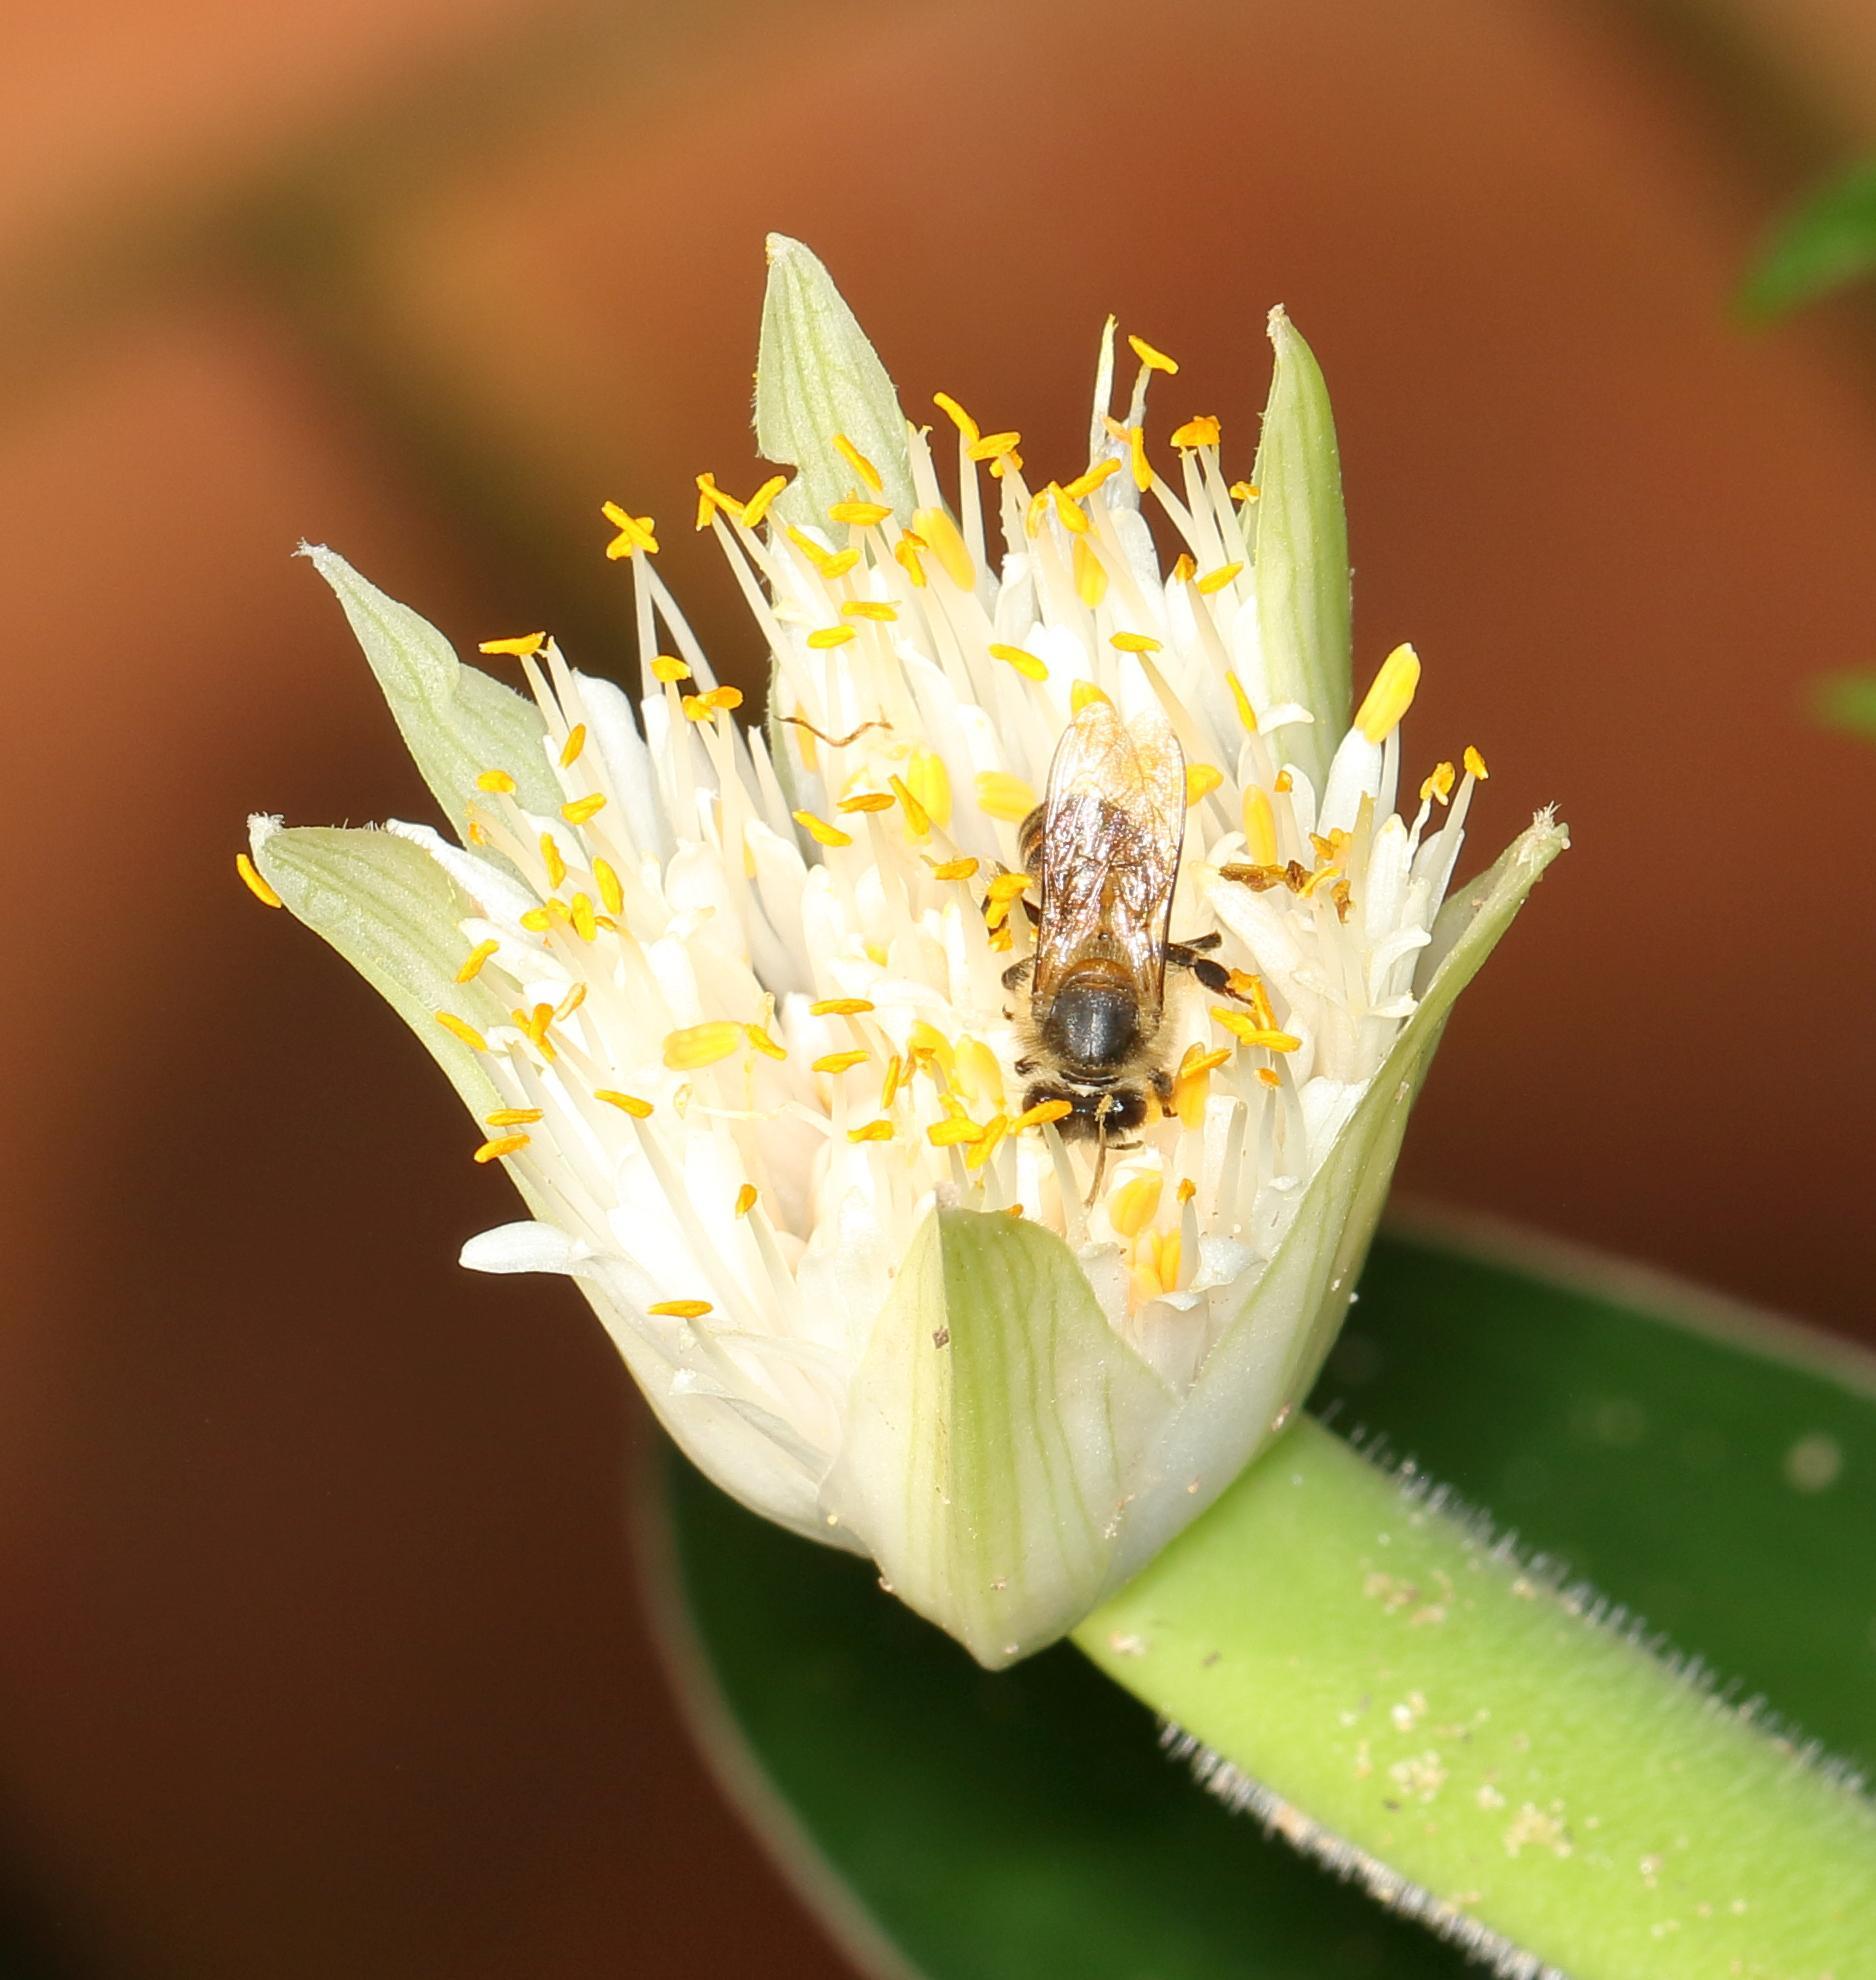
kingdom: Plantae
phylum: Tracheophyta
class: Liliopsida
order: Asparagales
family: Amaryllidaceae
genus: Haemanthus
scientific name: Haemanthus albiflos
